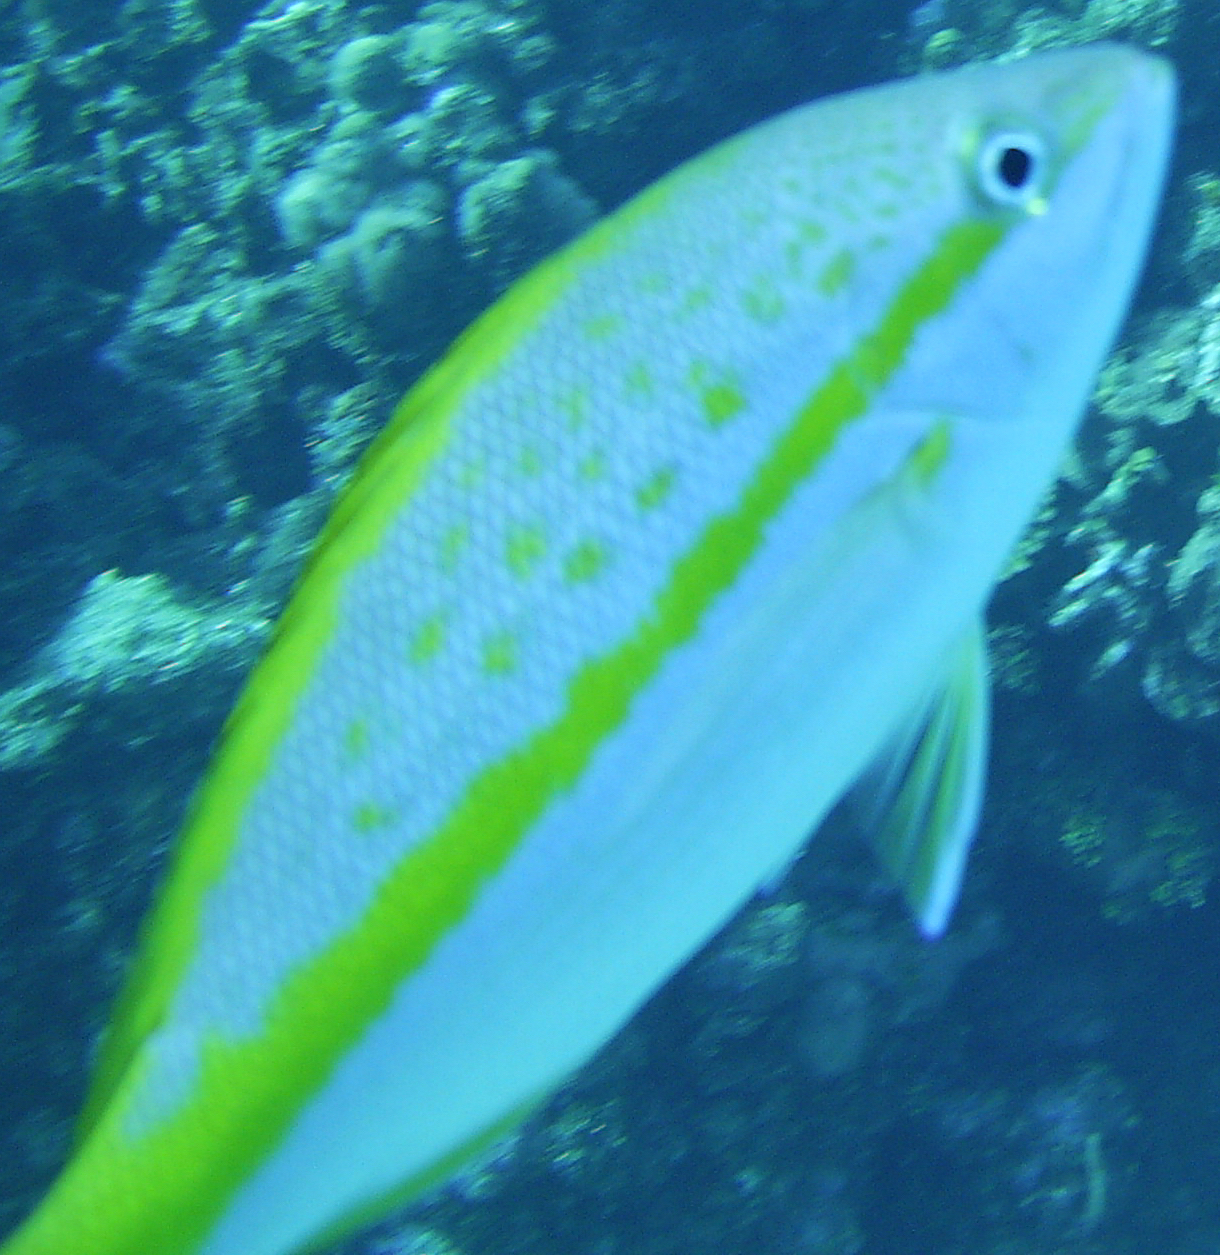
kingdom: Animalia
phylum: Chordata
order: Perciformes
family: Lutjanidae
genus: Ocyurus
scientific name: Ocyurus chrysurus
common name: Yellowtail snapper
